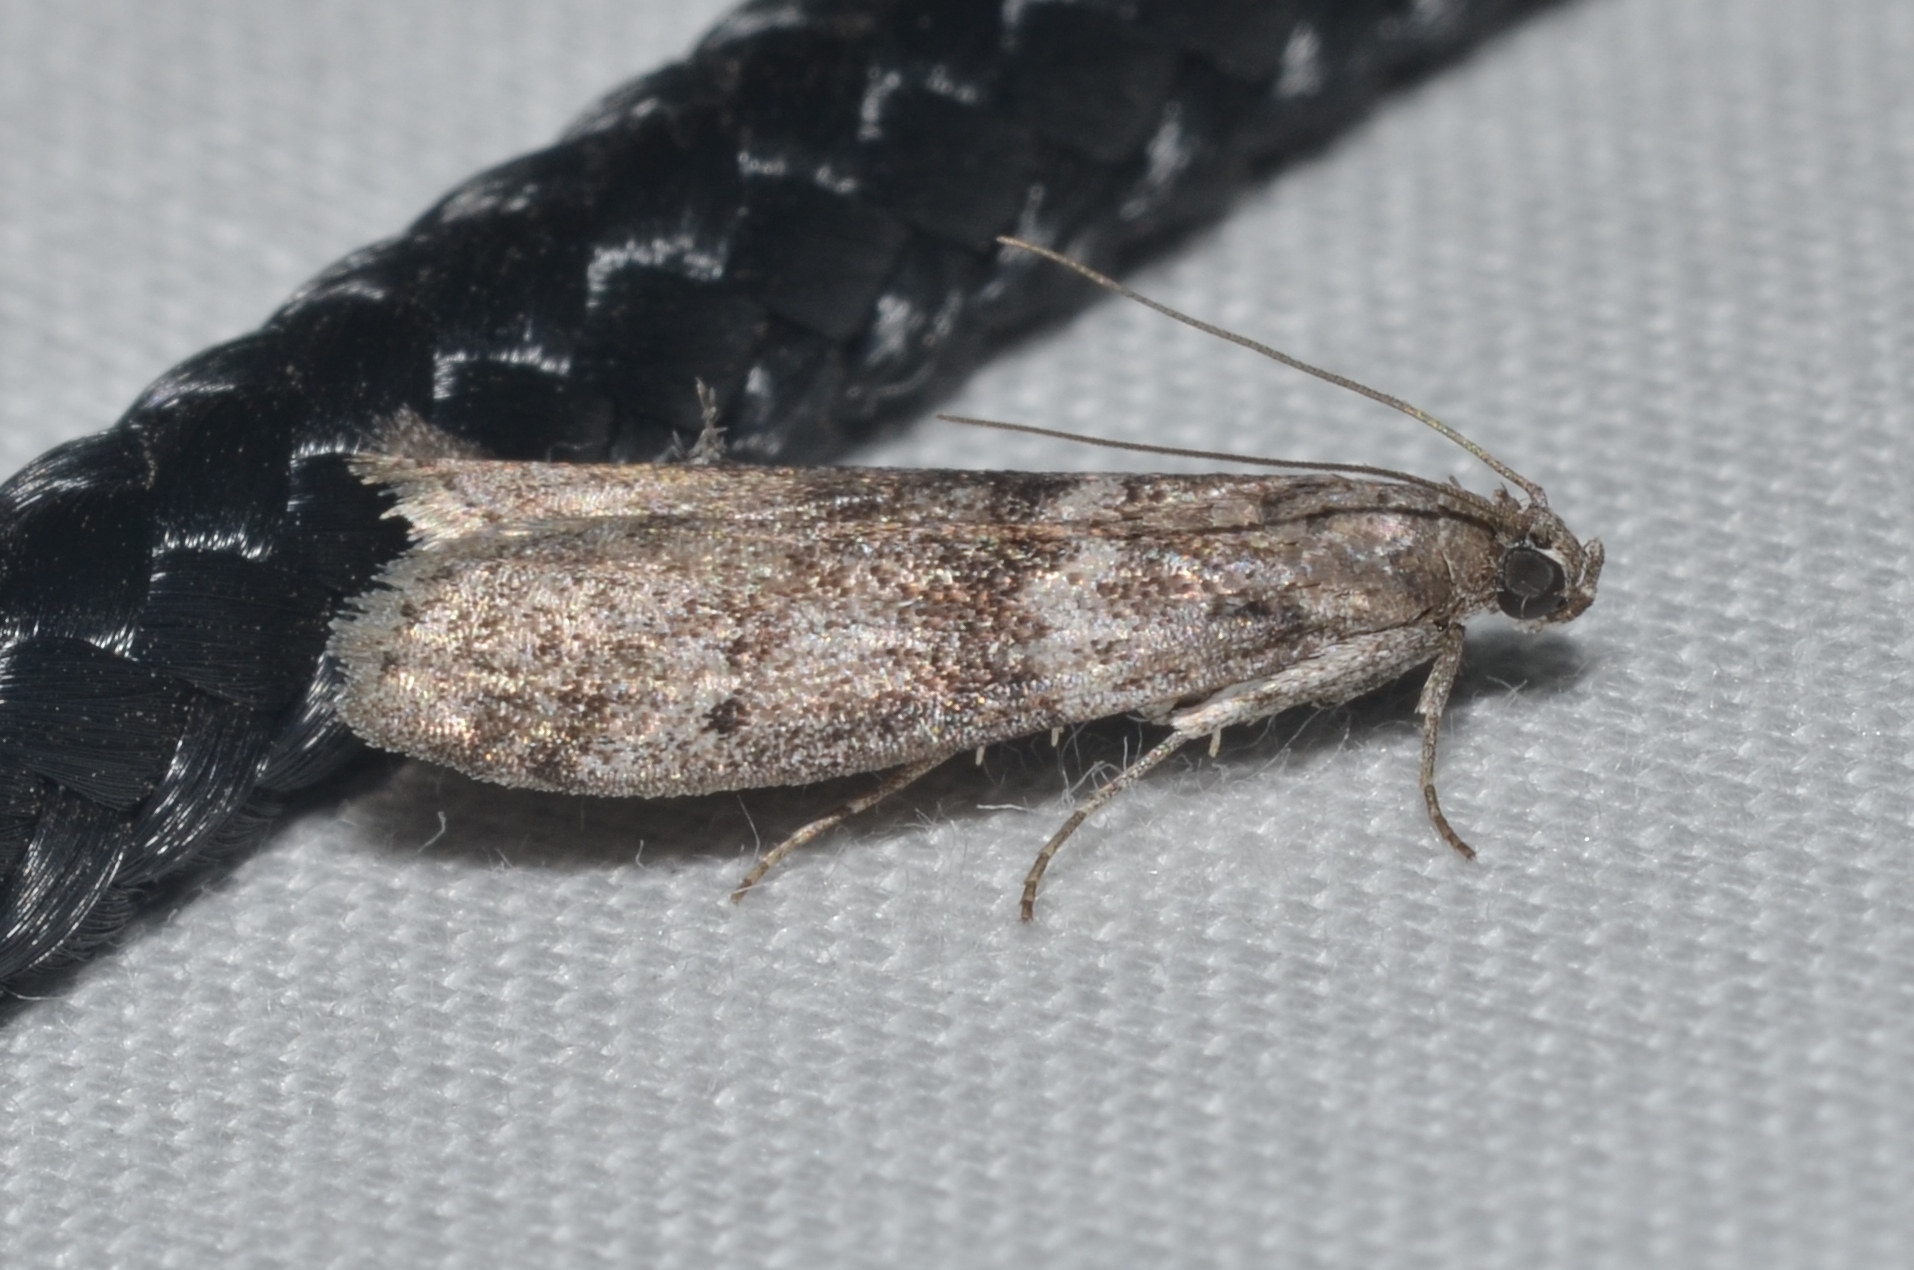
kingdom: Animalia
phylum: Arthropoda
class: Insecta
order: Lepidoptera
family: Pyralidae
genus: Ephestia
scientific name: Ephestia kuehniella
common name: Mediterranean flour moth
